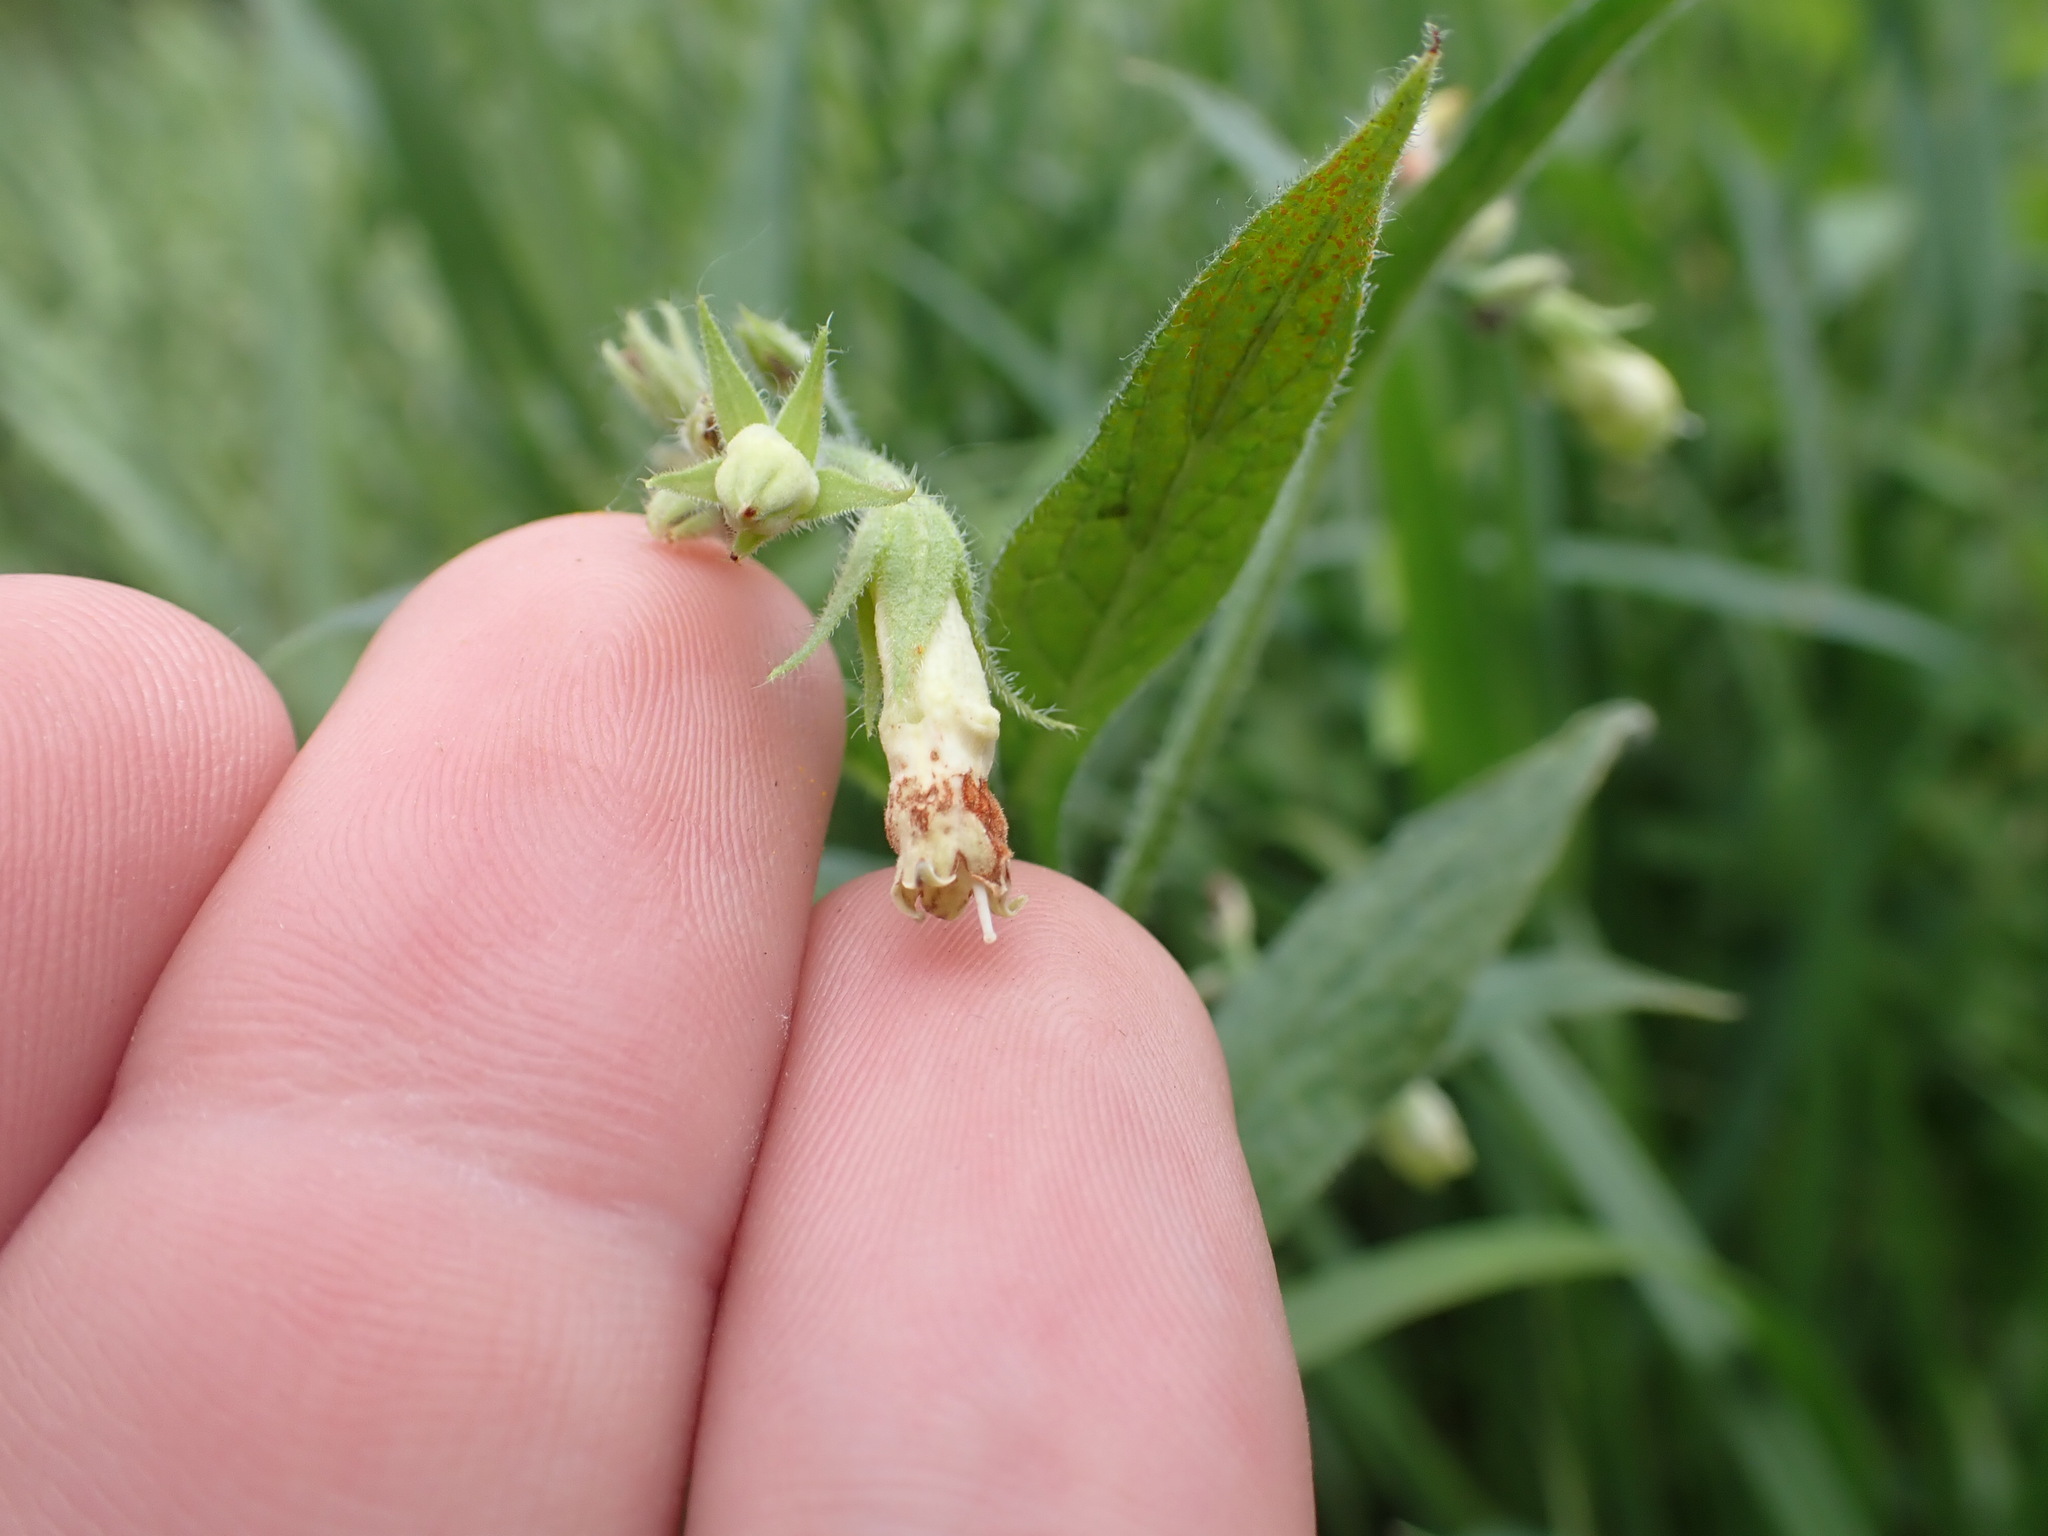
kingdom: Plantae
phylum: Tracheophyta
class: Magnoliopsida
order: Boraginales
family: Boraginaceae
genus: Symphytum
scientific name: Symphytum officinale
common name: Common comfrey
